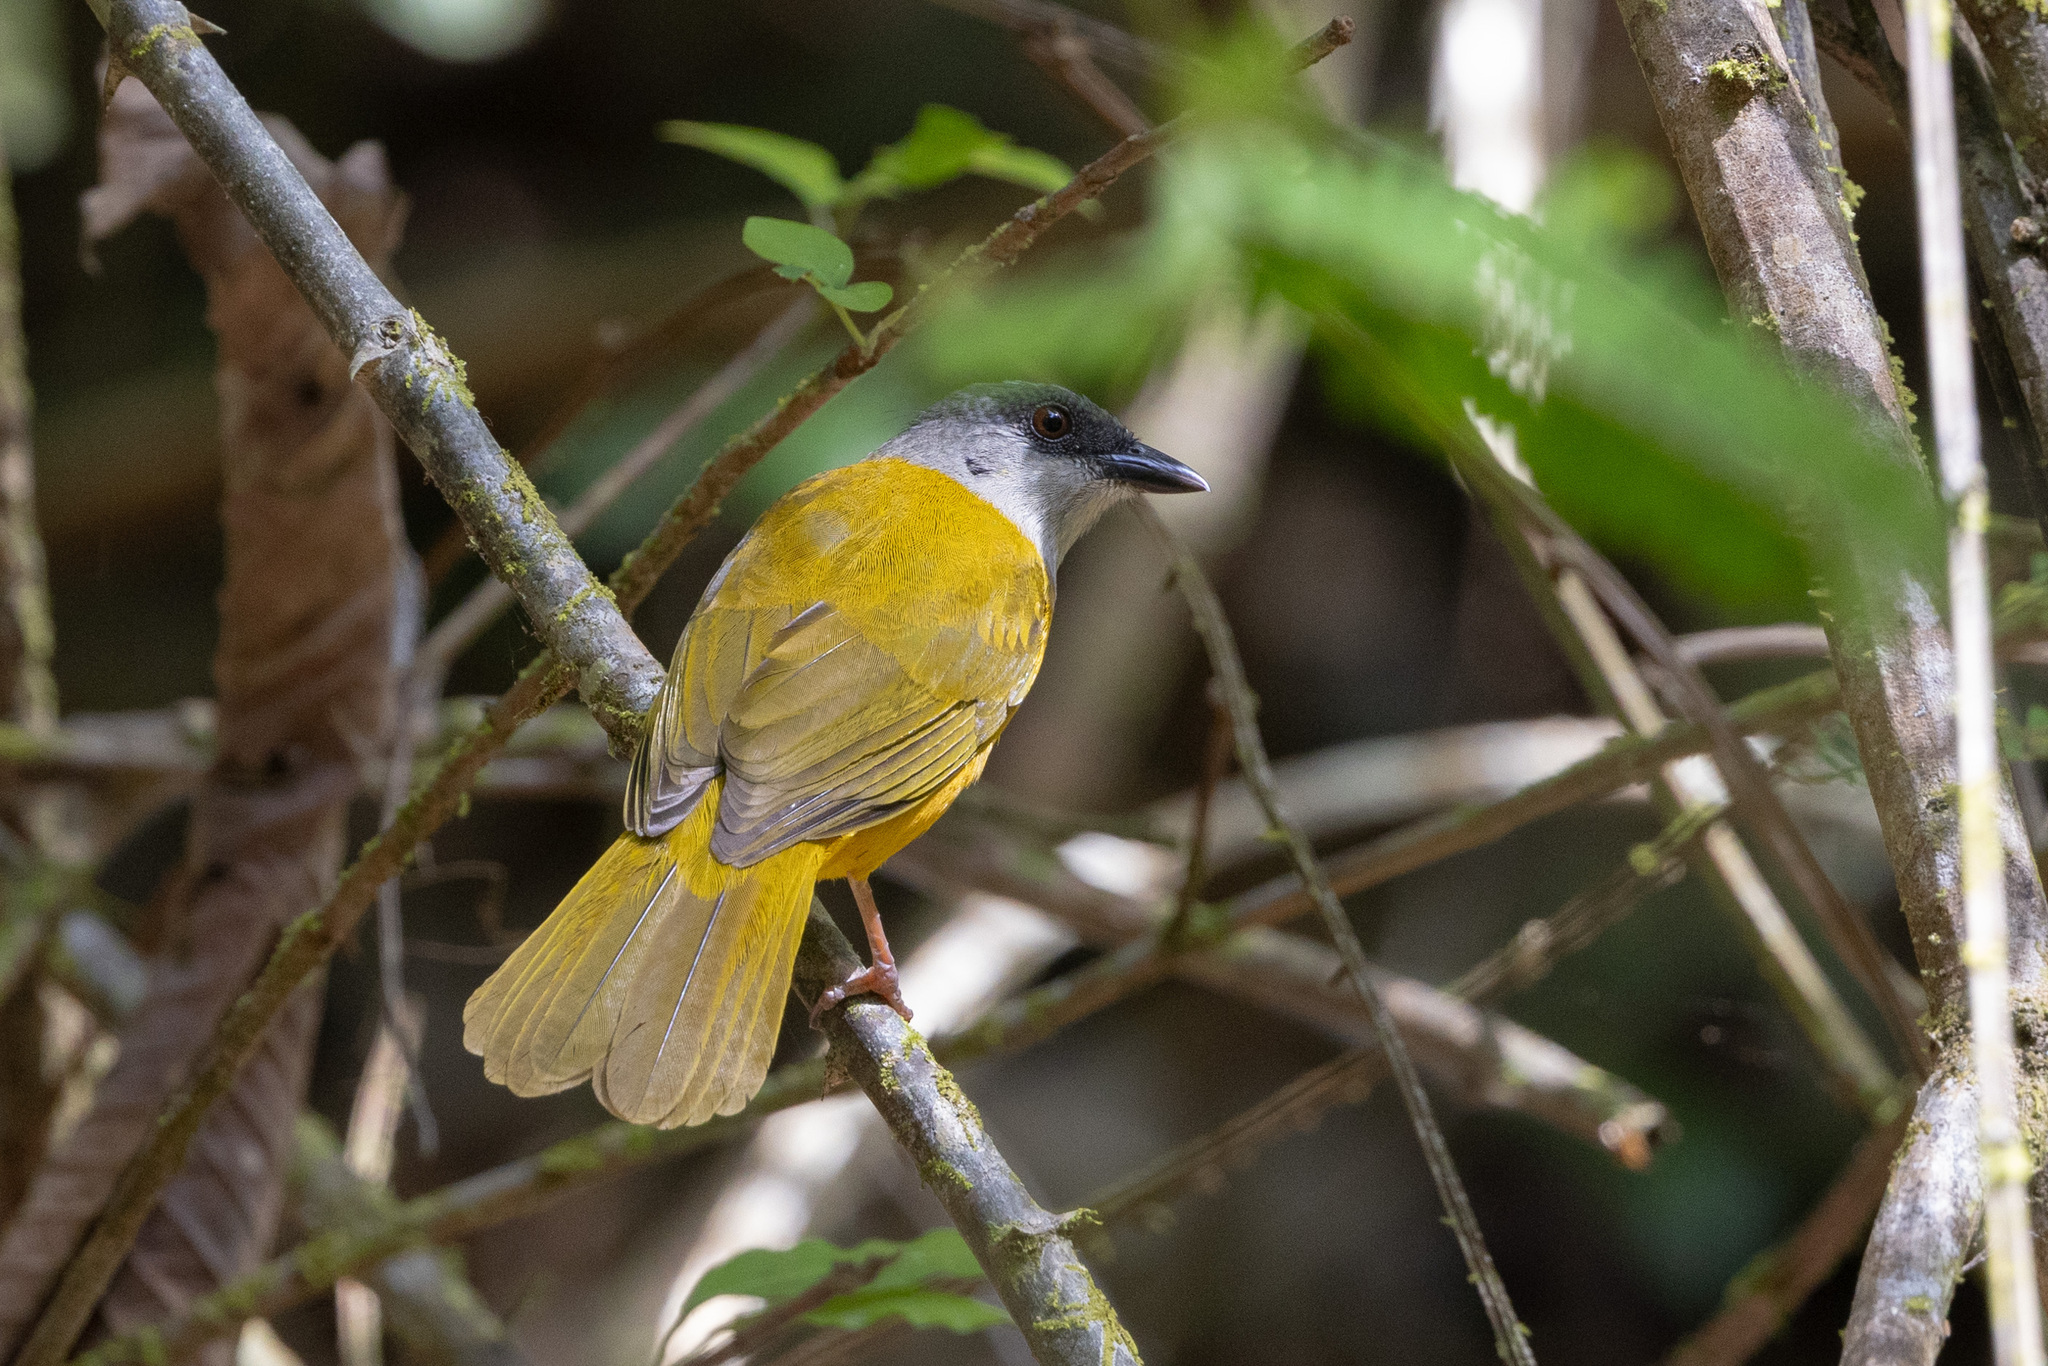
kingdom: Animalia
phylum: Chordata
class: Aves
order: Passeriformes
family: Thraupidae
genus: Eucometis
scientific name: Eucometis penicillata
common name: Grey-headed tanager
